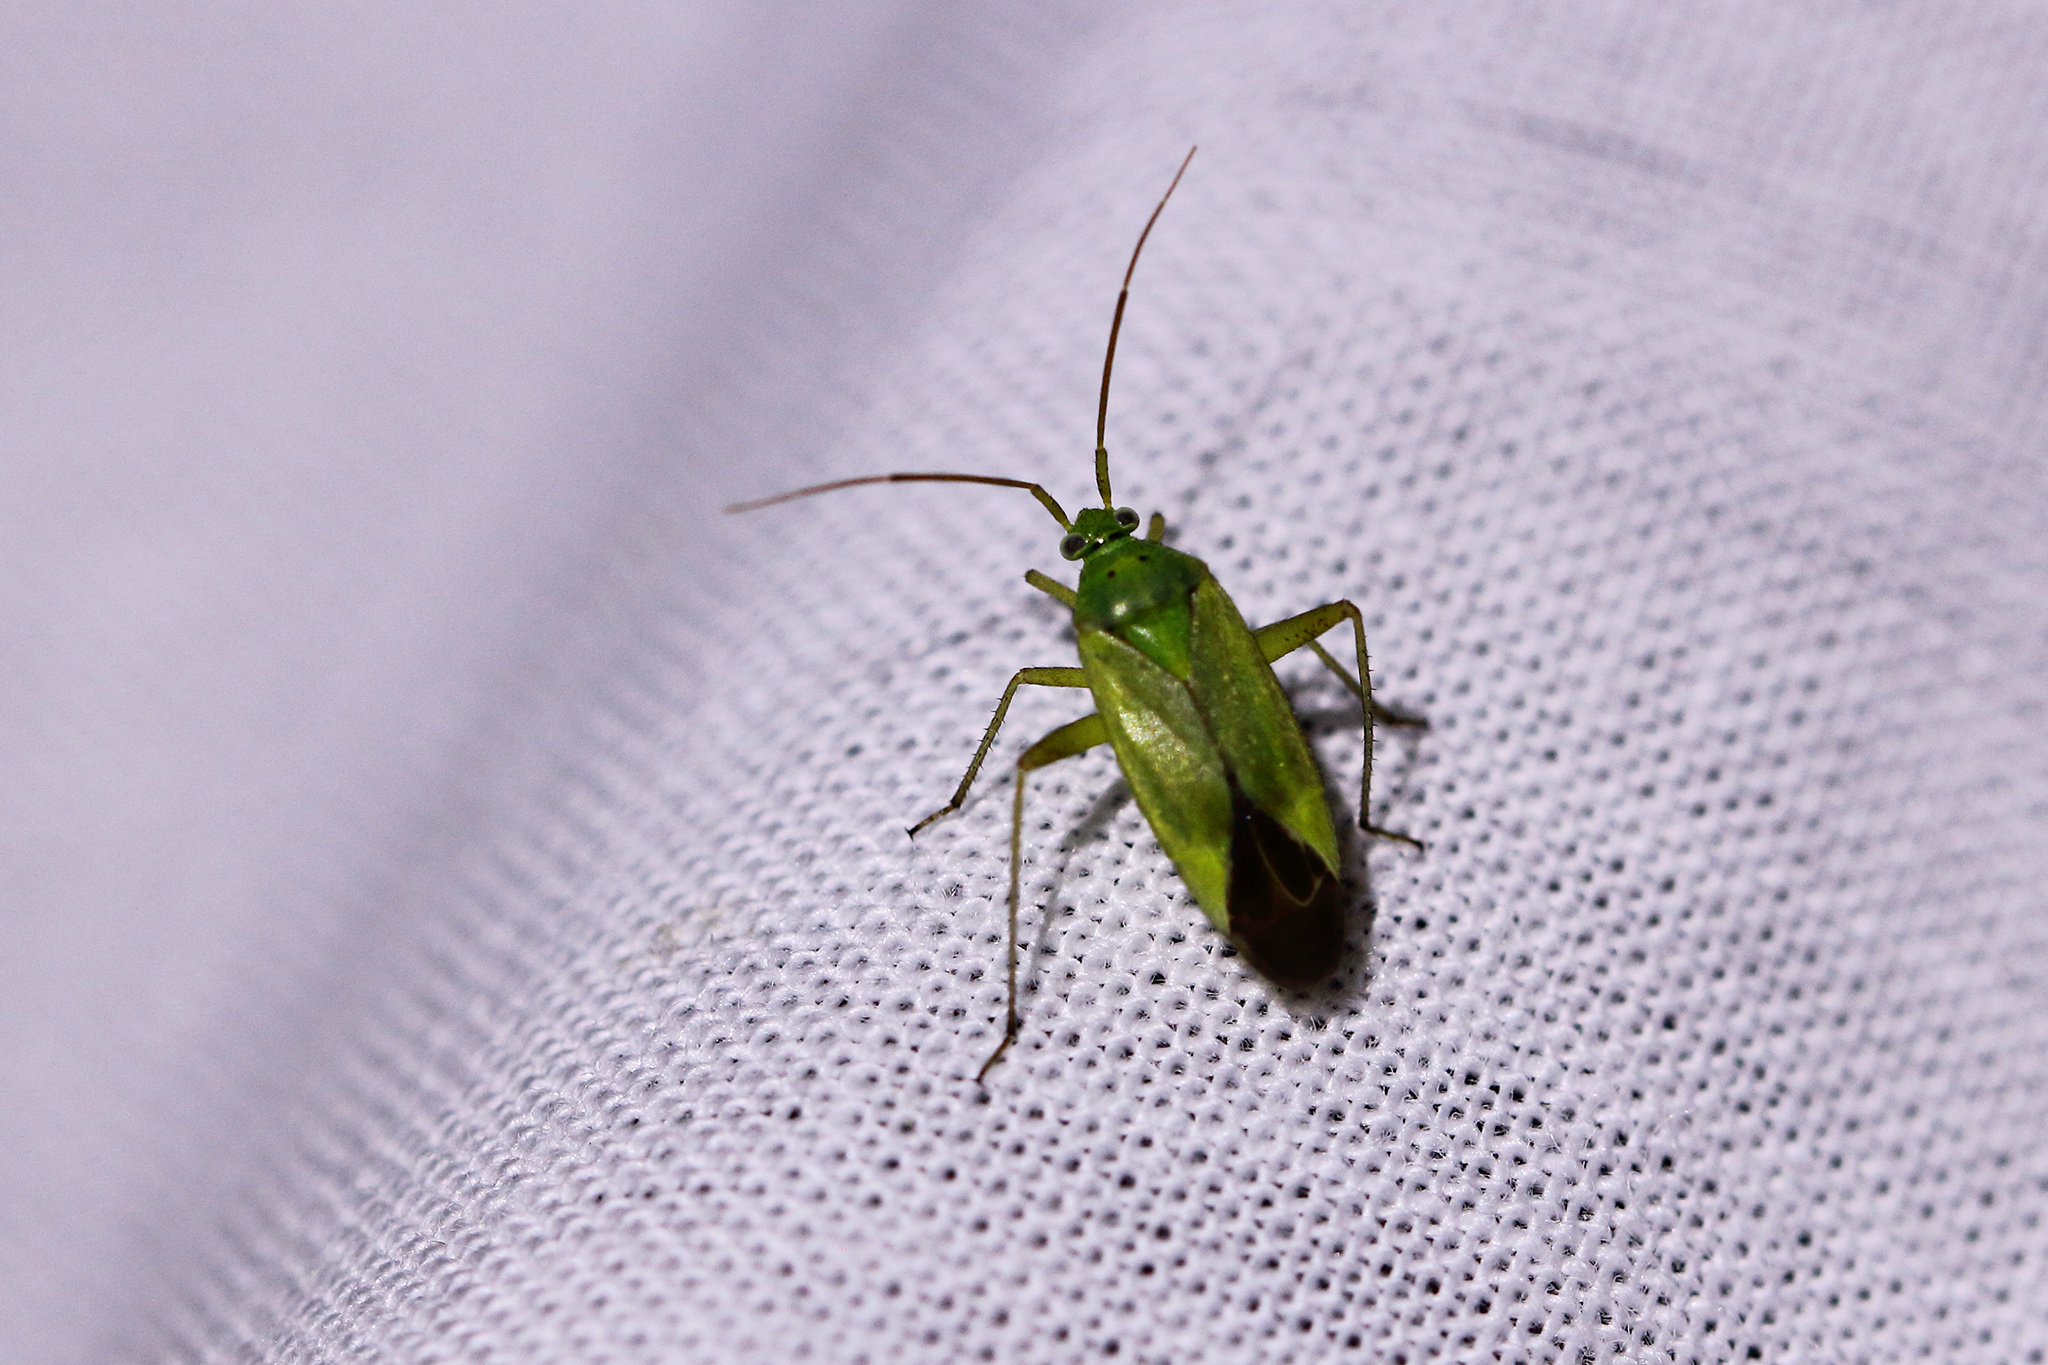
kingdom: Animalia
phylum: Arthropoda
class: Insecta
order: Hemiptera
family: Miridae
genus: Closterotomus
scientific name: Closterotomus norvegicus
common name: Plant bug
